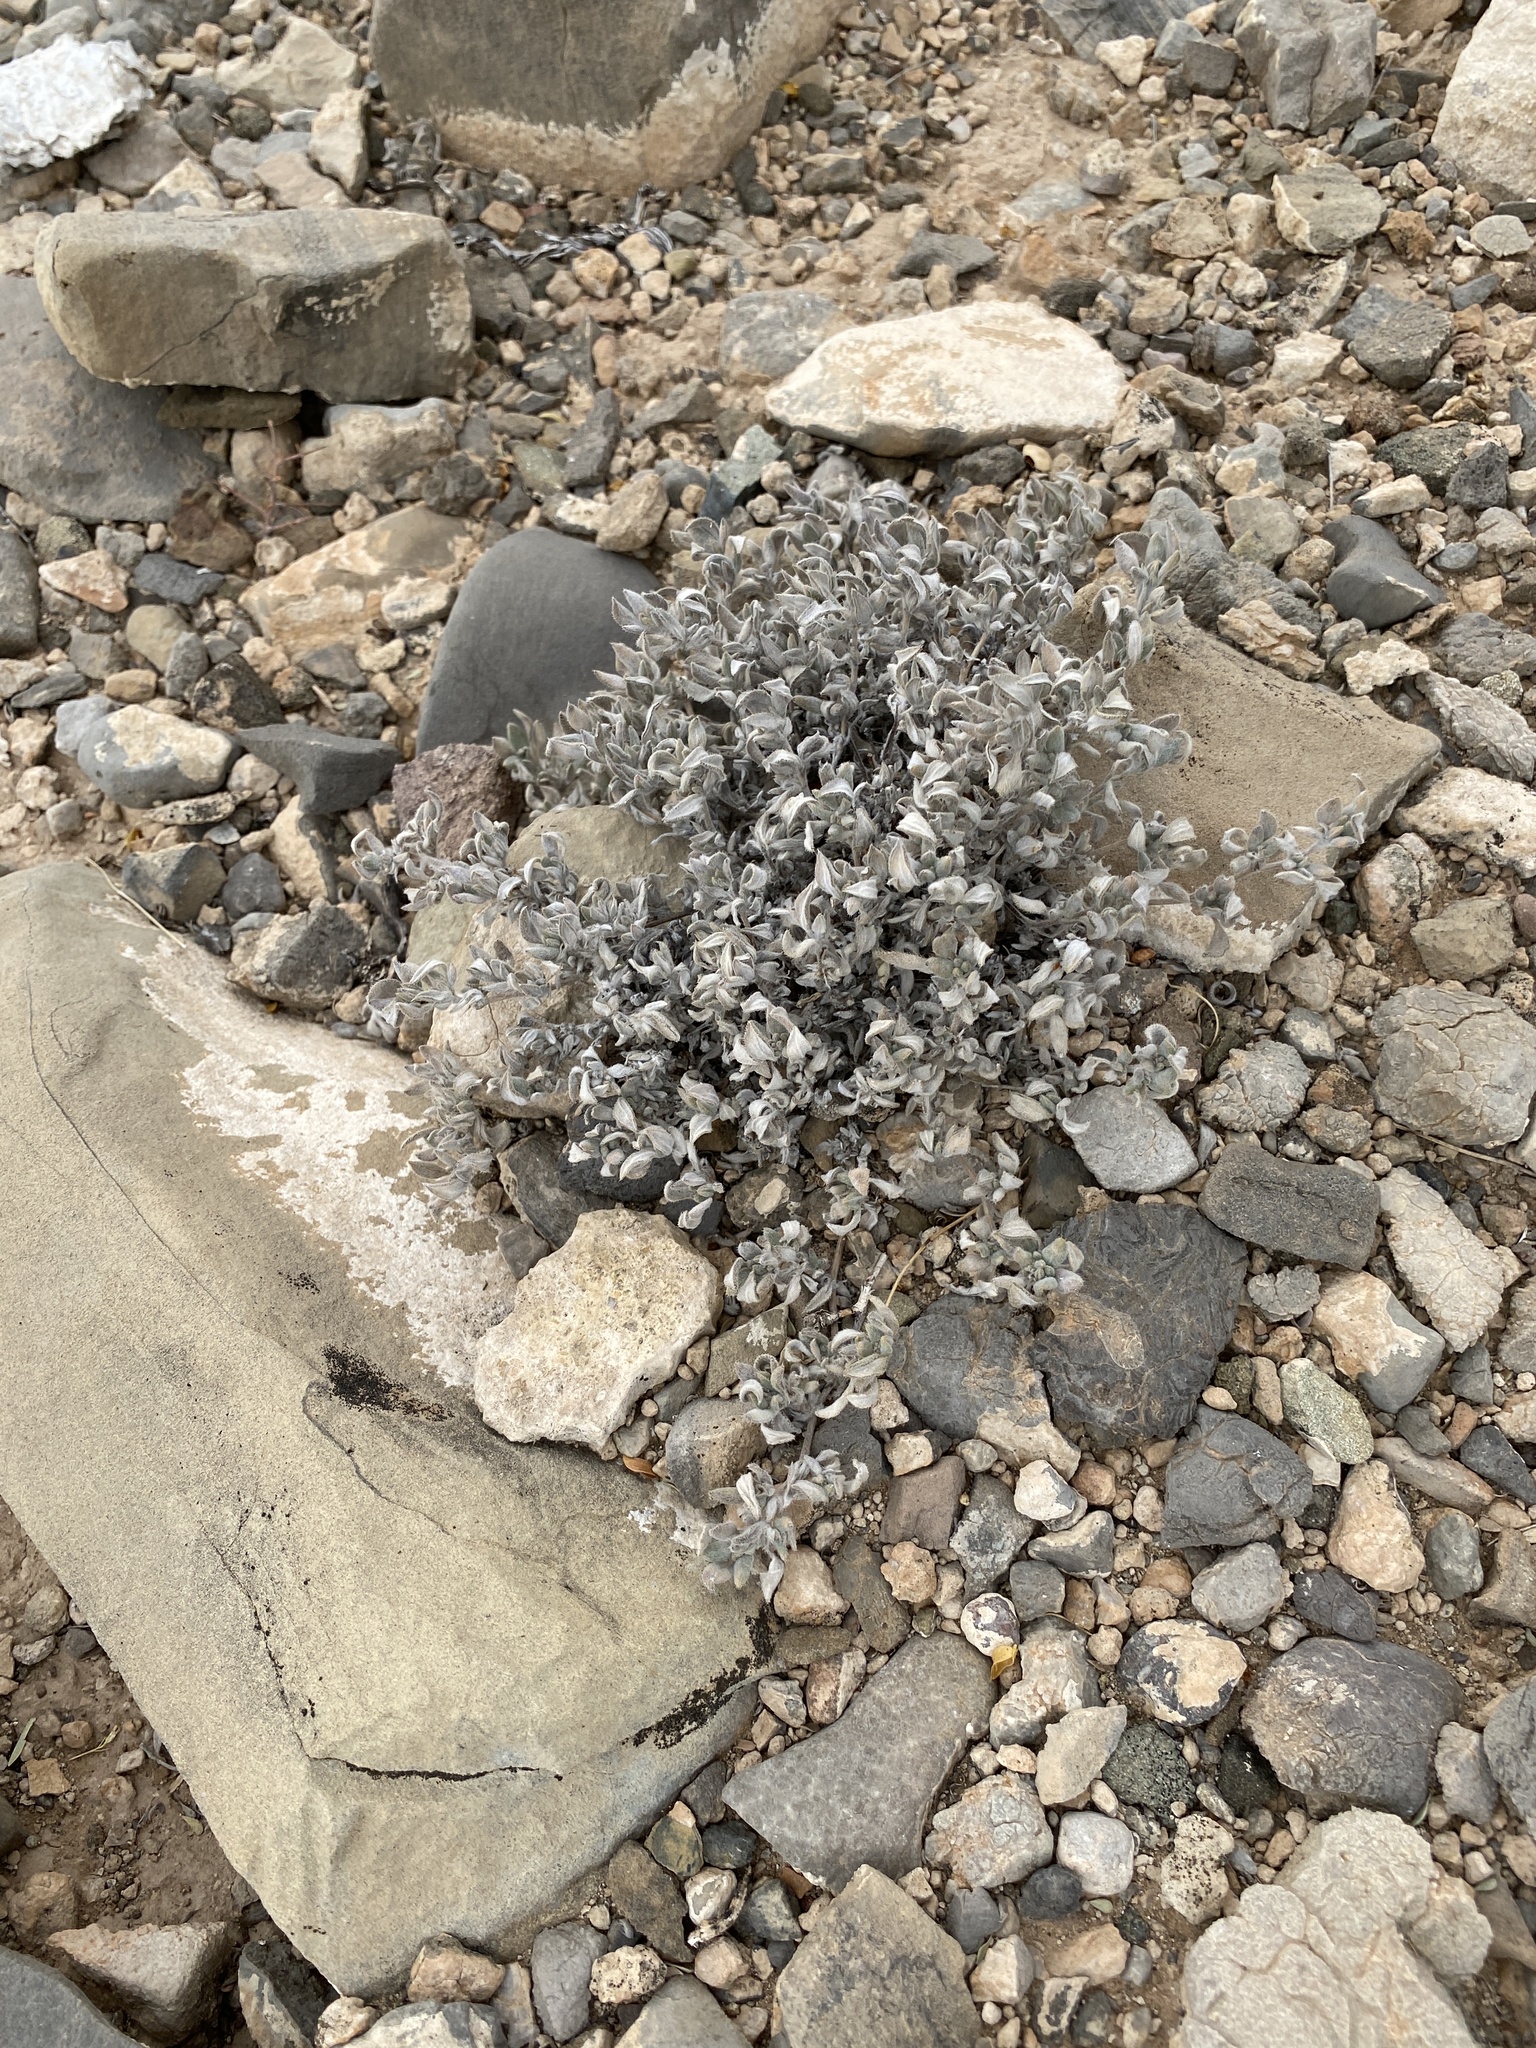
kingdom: Plantae
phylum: Tracheophyta
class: Magnoliopsida
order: Boraginales
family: Ehretiaceae
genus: Tiquilia
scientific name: Tiquilia canescens
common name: Hairy tiquilia
